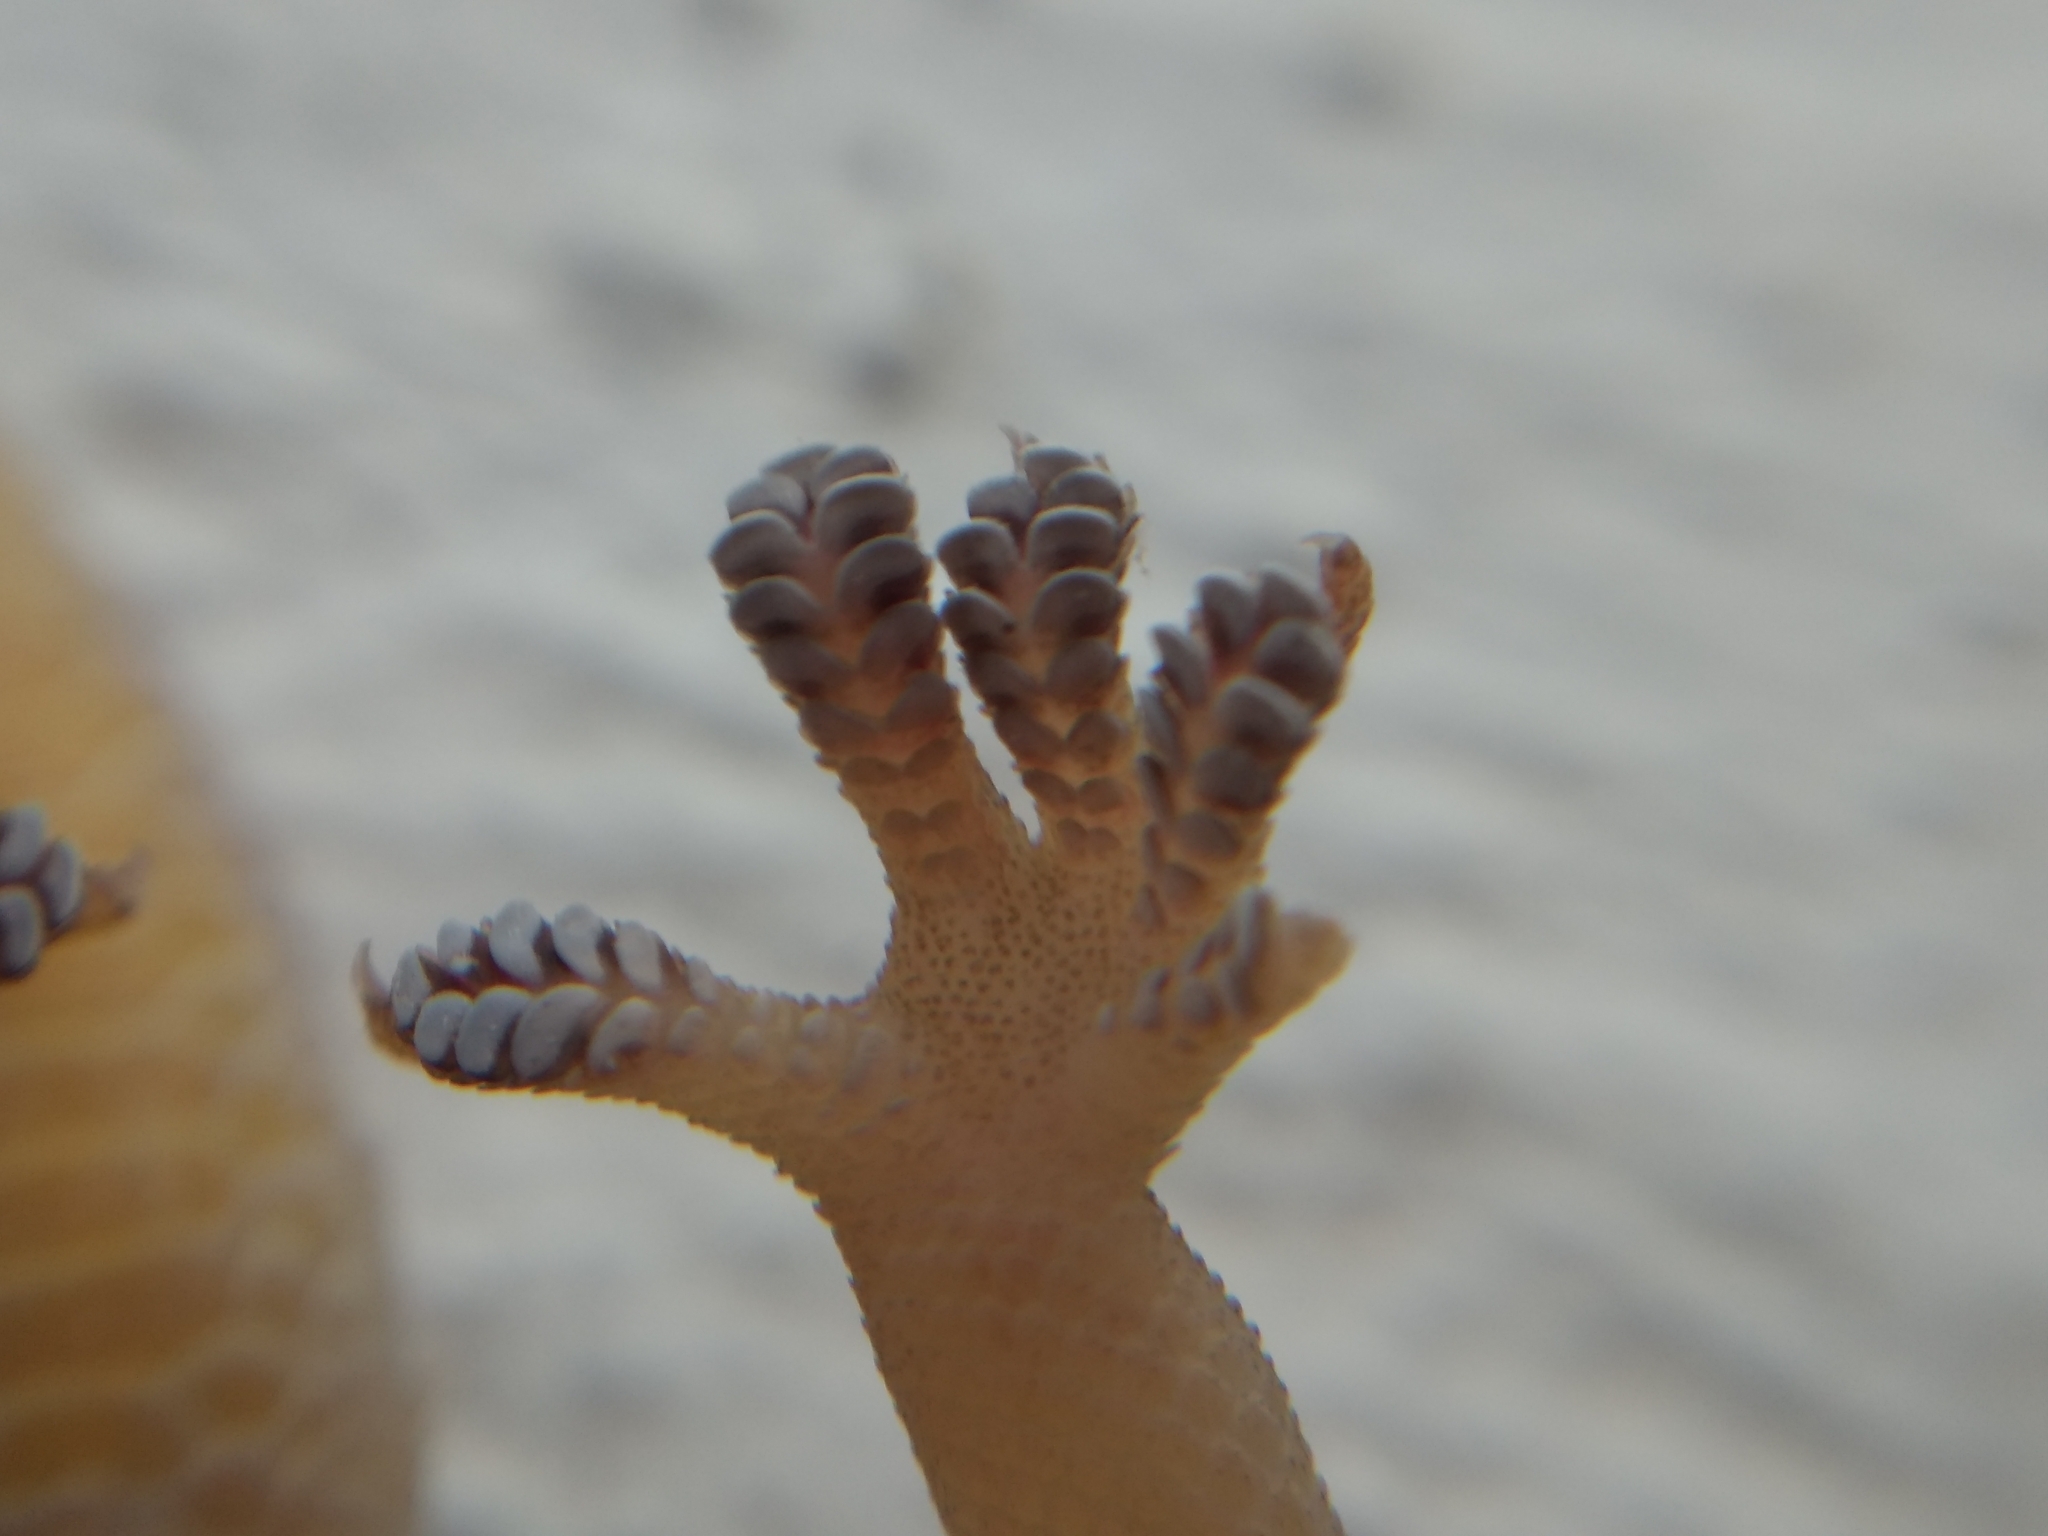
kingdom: Animalia
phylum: Chordata
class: Squamata
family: Gekkonidae
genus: Hemidactylus
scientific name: Hemidactylus frenatus
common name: Common house gecko
